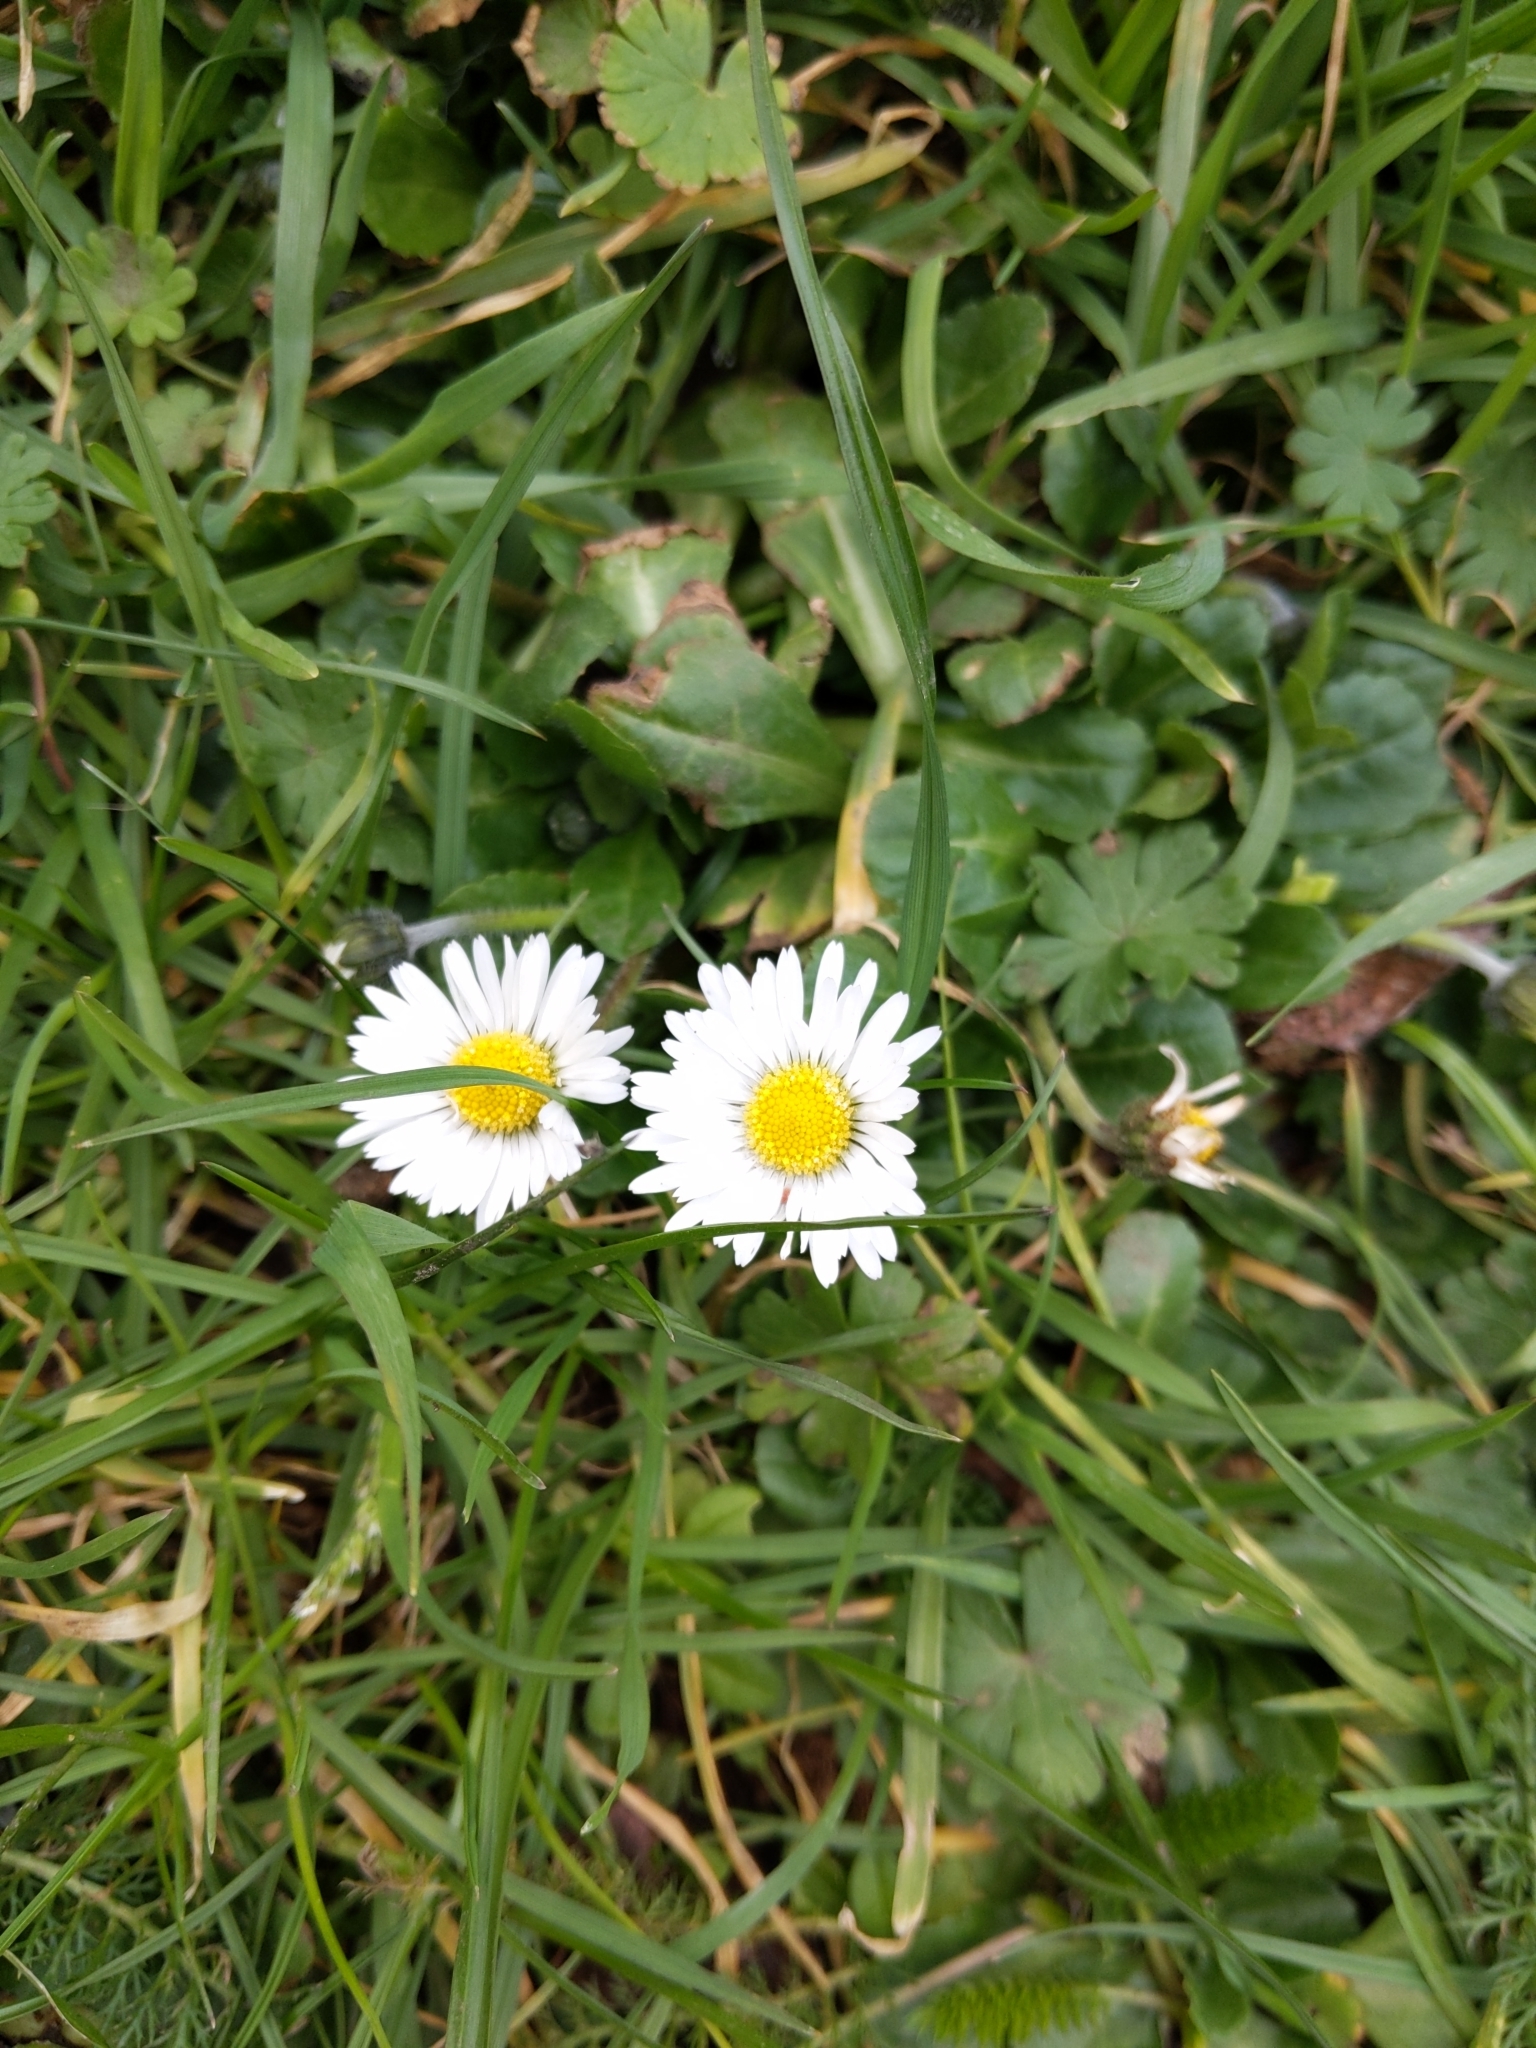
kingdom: Plantae
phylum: Tracheophyta
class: Magnoliopsida
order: Asterales
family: Asteraceae
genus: Bellis
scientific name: Bellis perennis
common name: Lawndaisy
